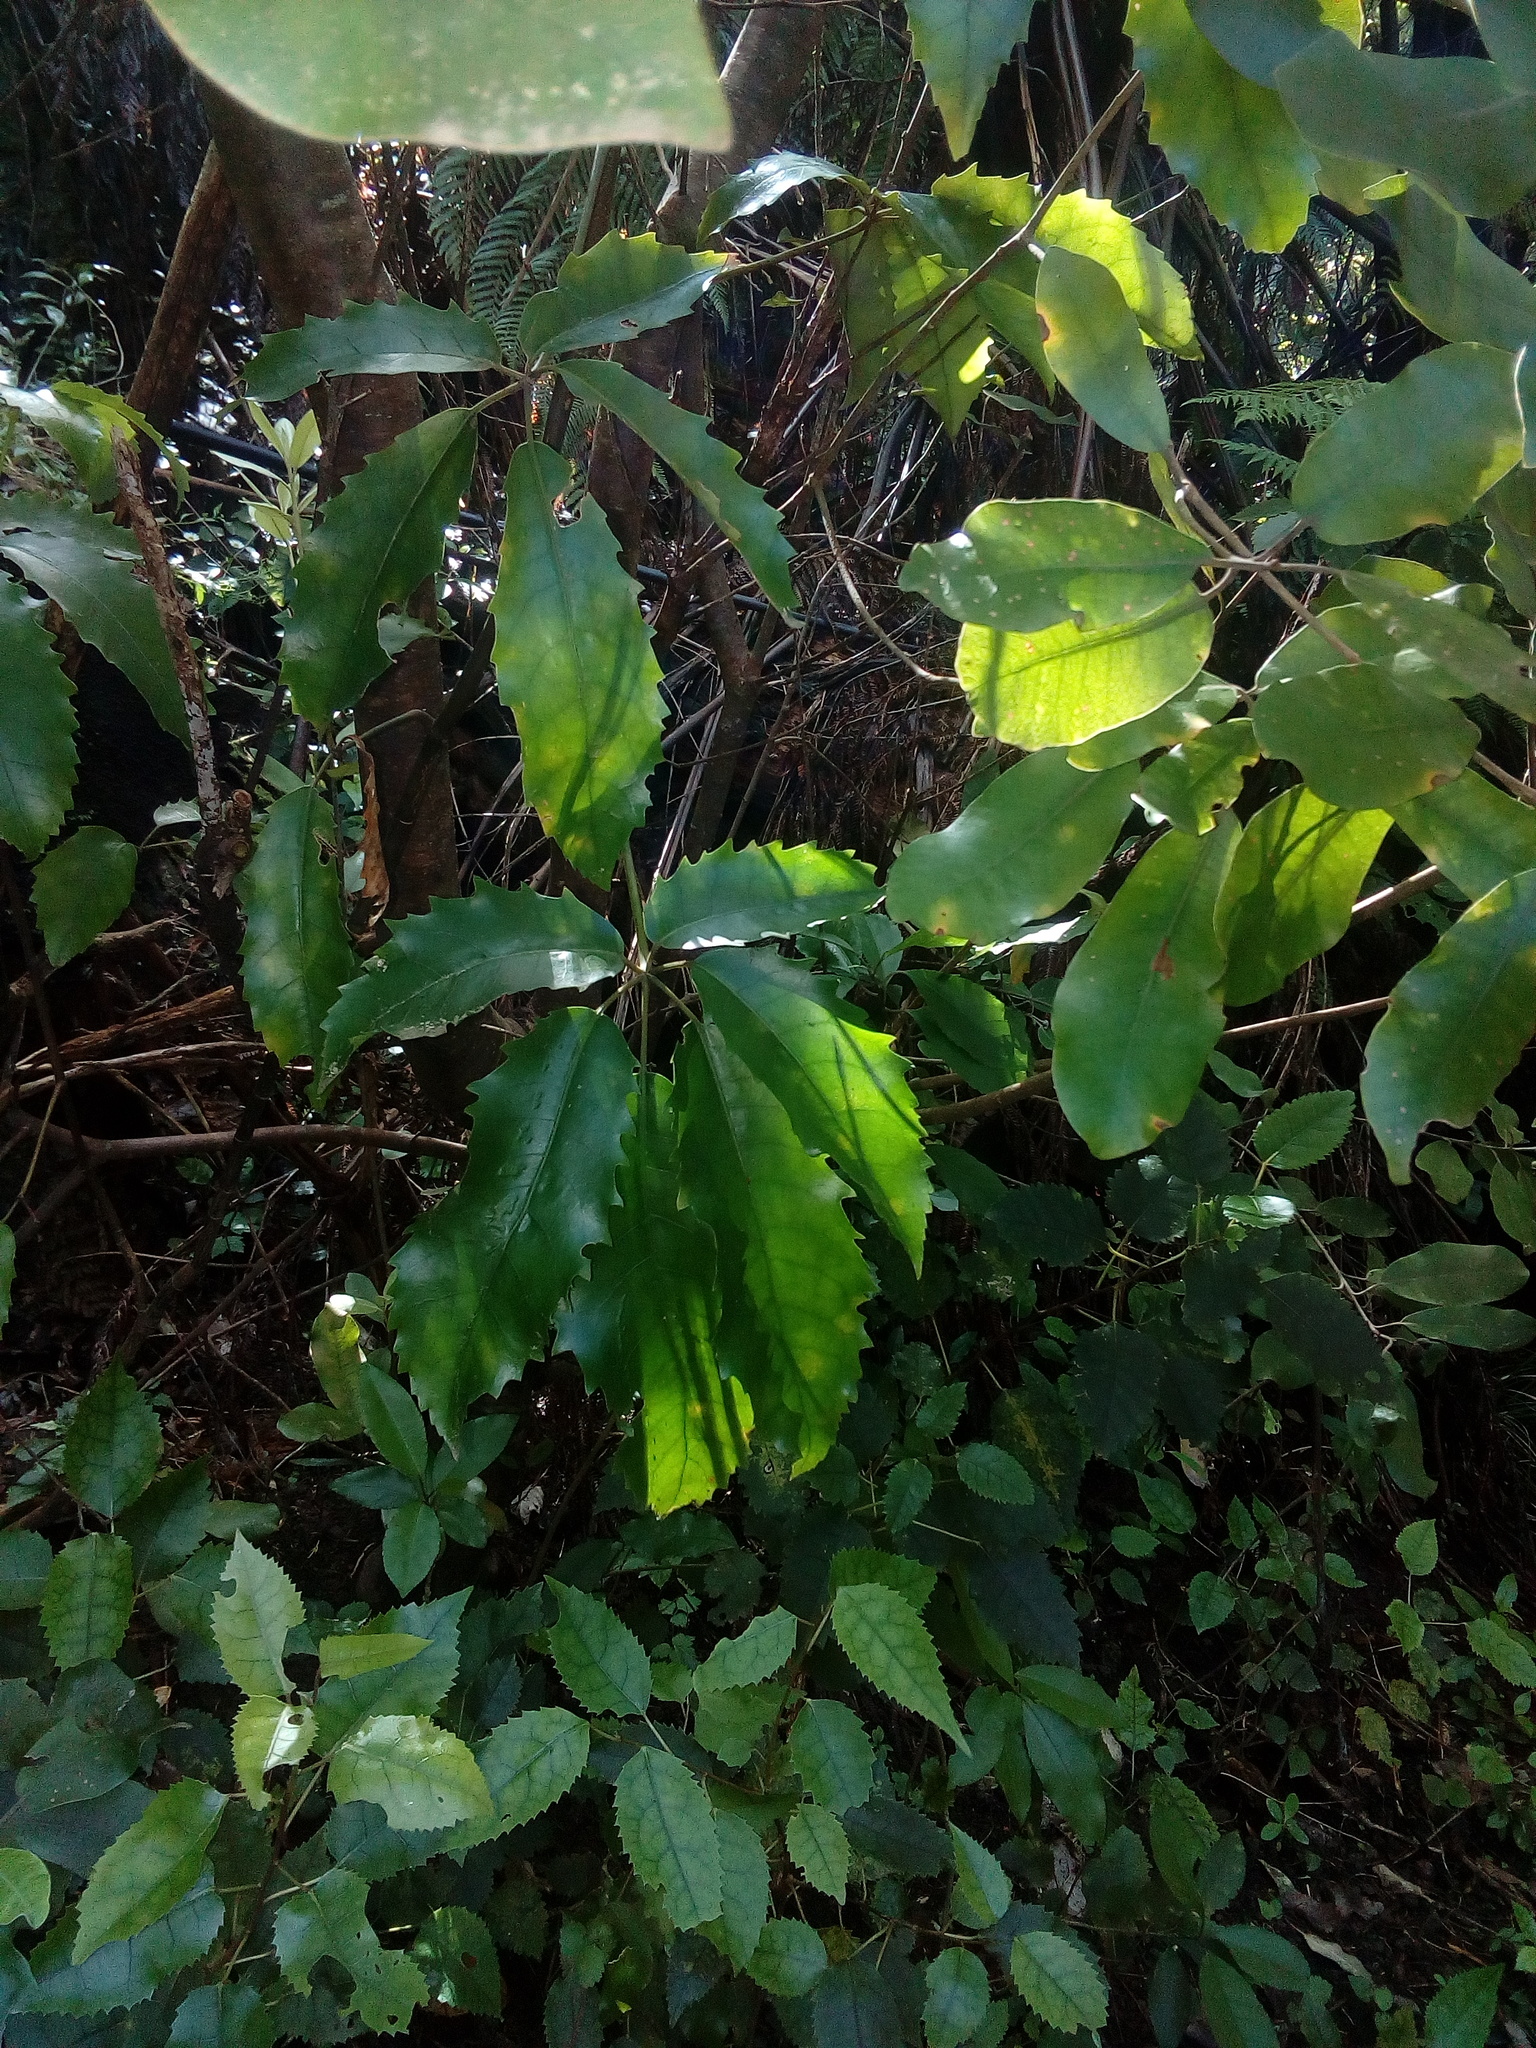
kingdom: Plantae
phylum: Tracheophyta
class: Magnoliopsida
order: Apiales
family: Araliaceae
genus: Neopanax
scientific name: Neopanax arboreus
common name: Five-fingers
